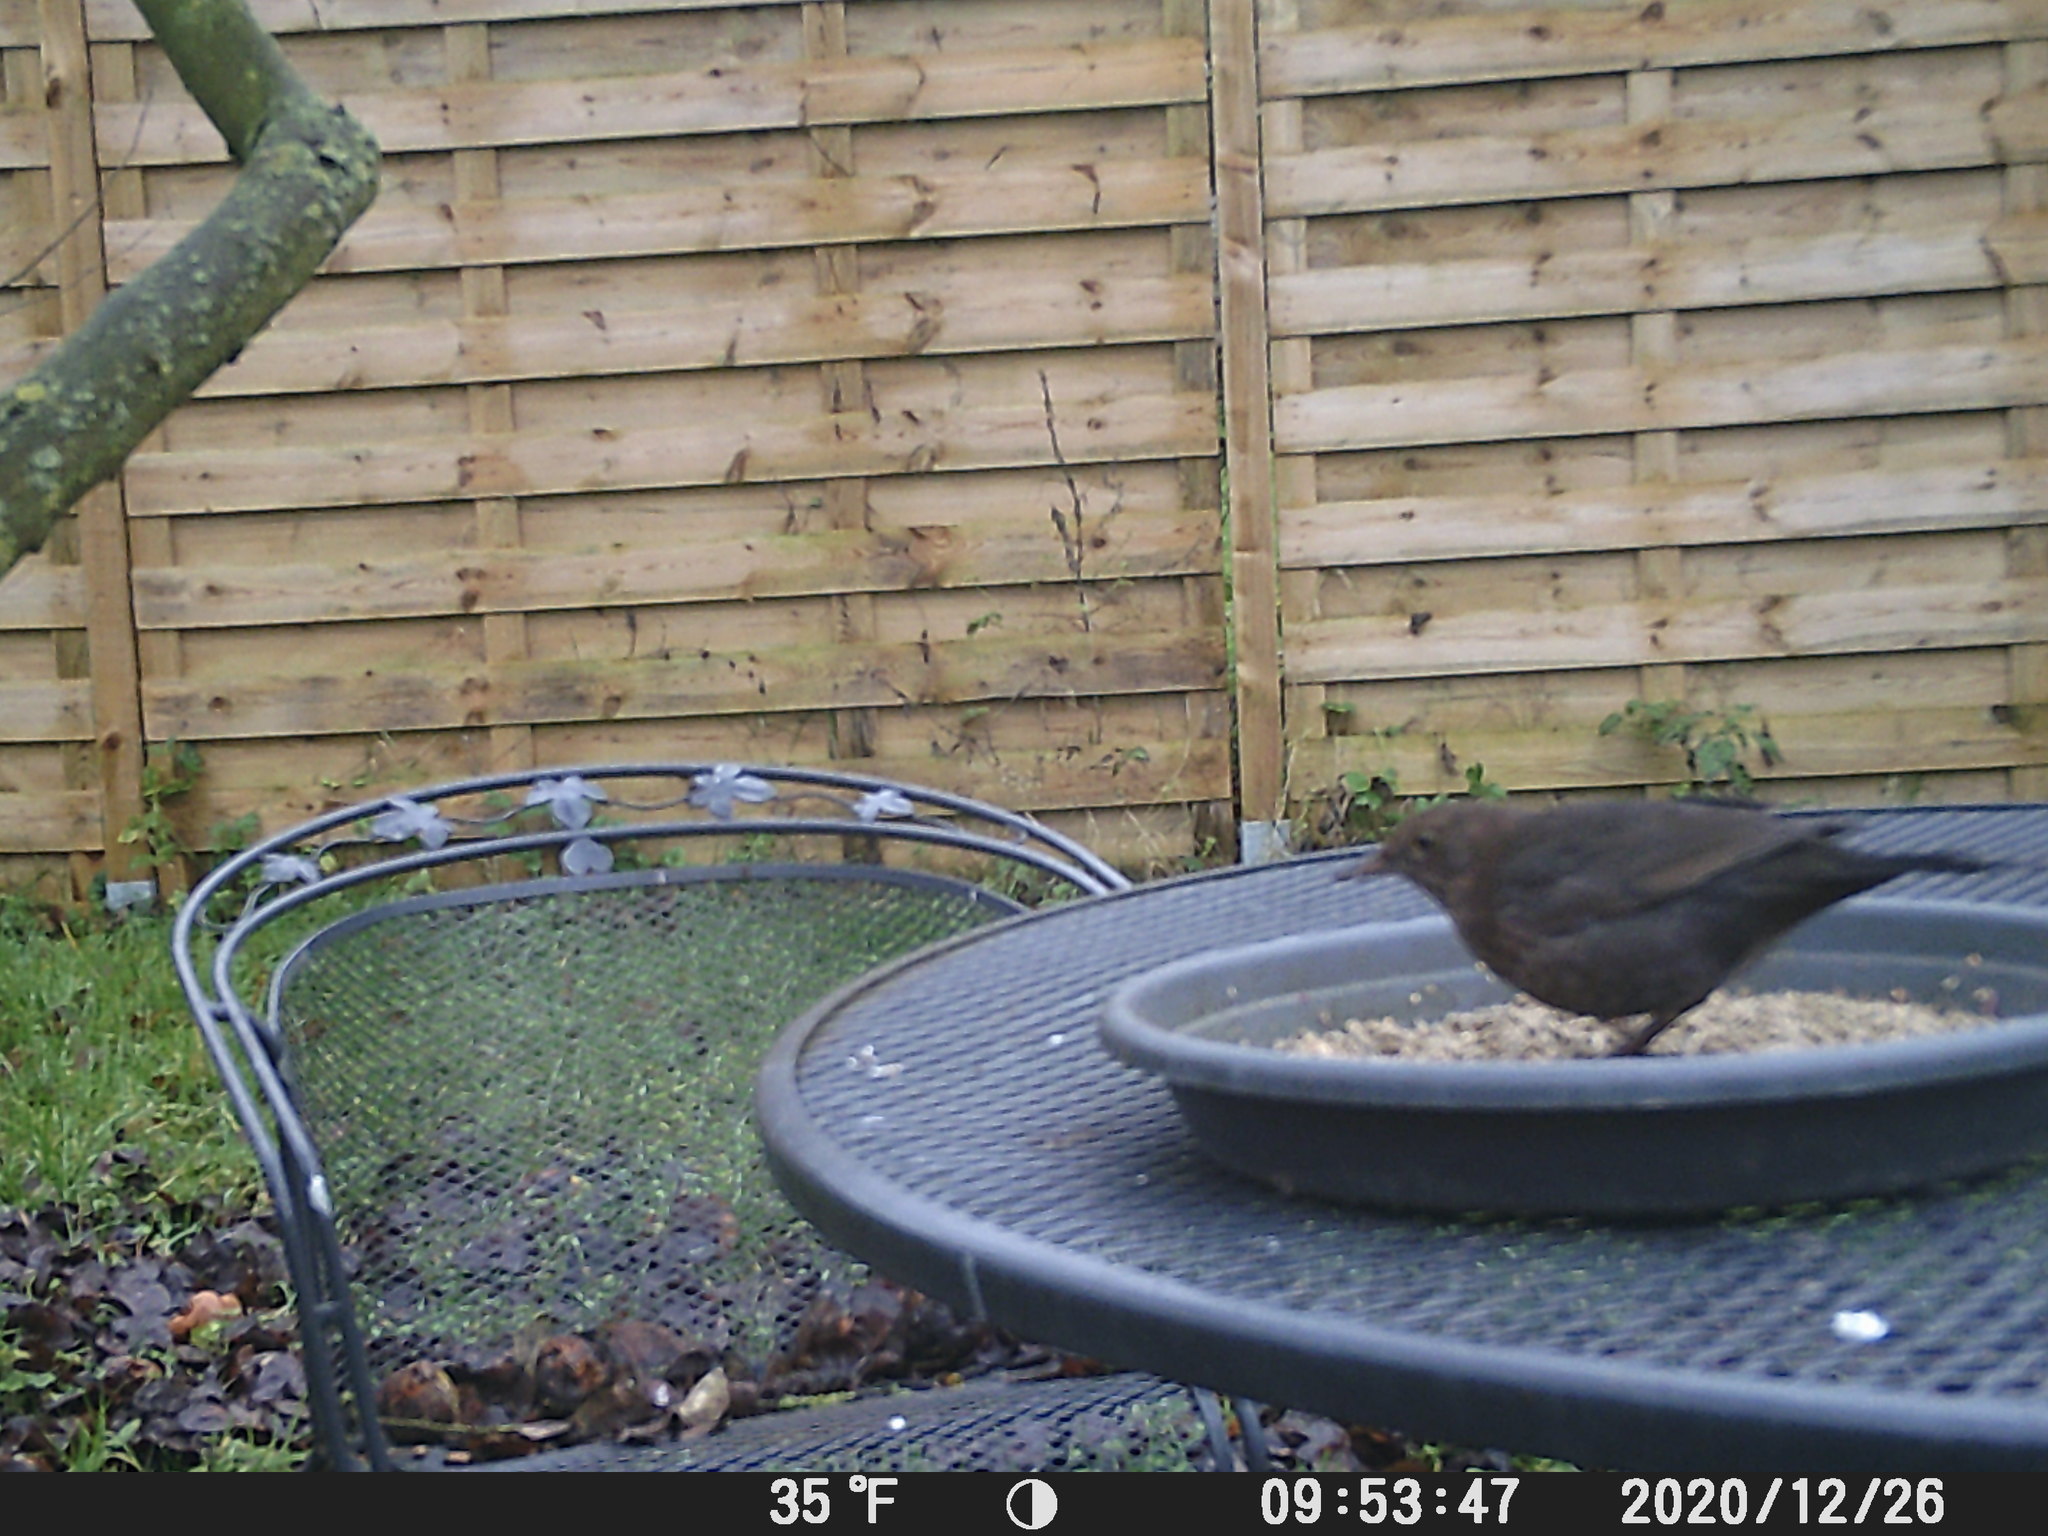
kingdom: Animalia
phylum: Chordata
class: Aves
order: Passeriformes
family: Turdidae
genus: Turdus
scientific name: Turdus merula
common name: Common blackbird
